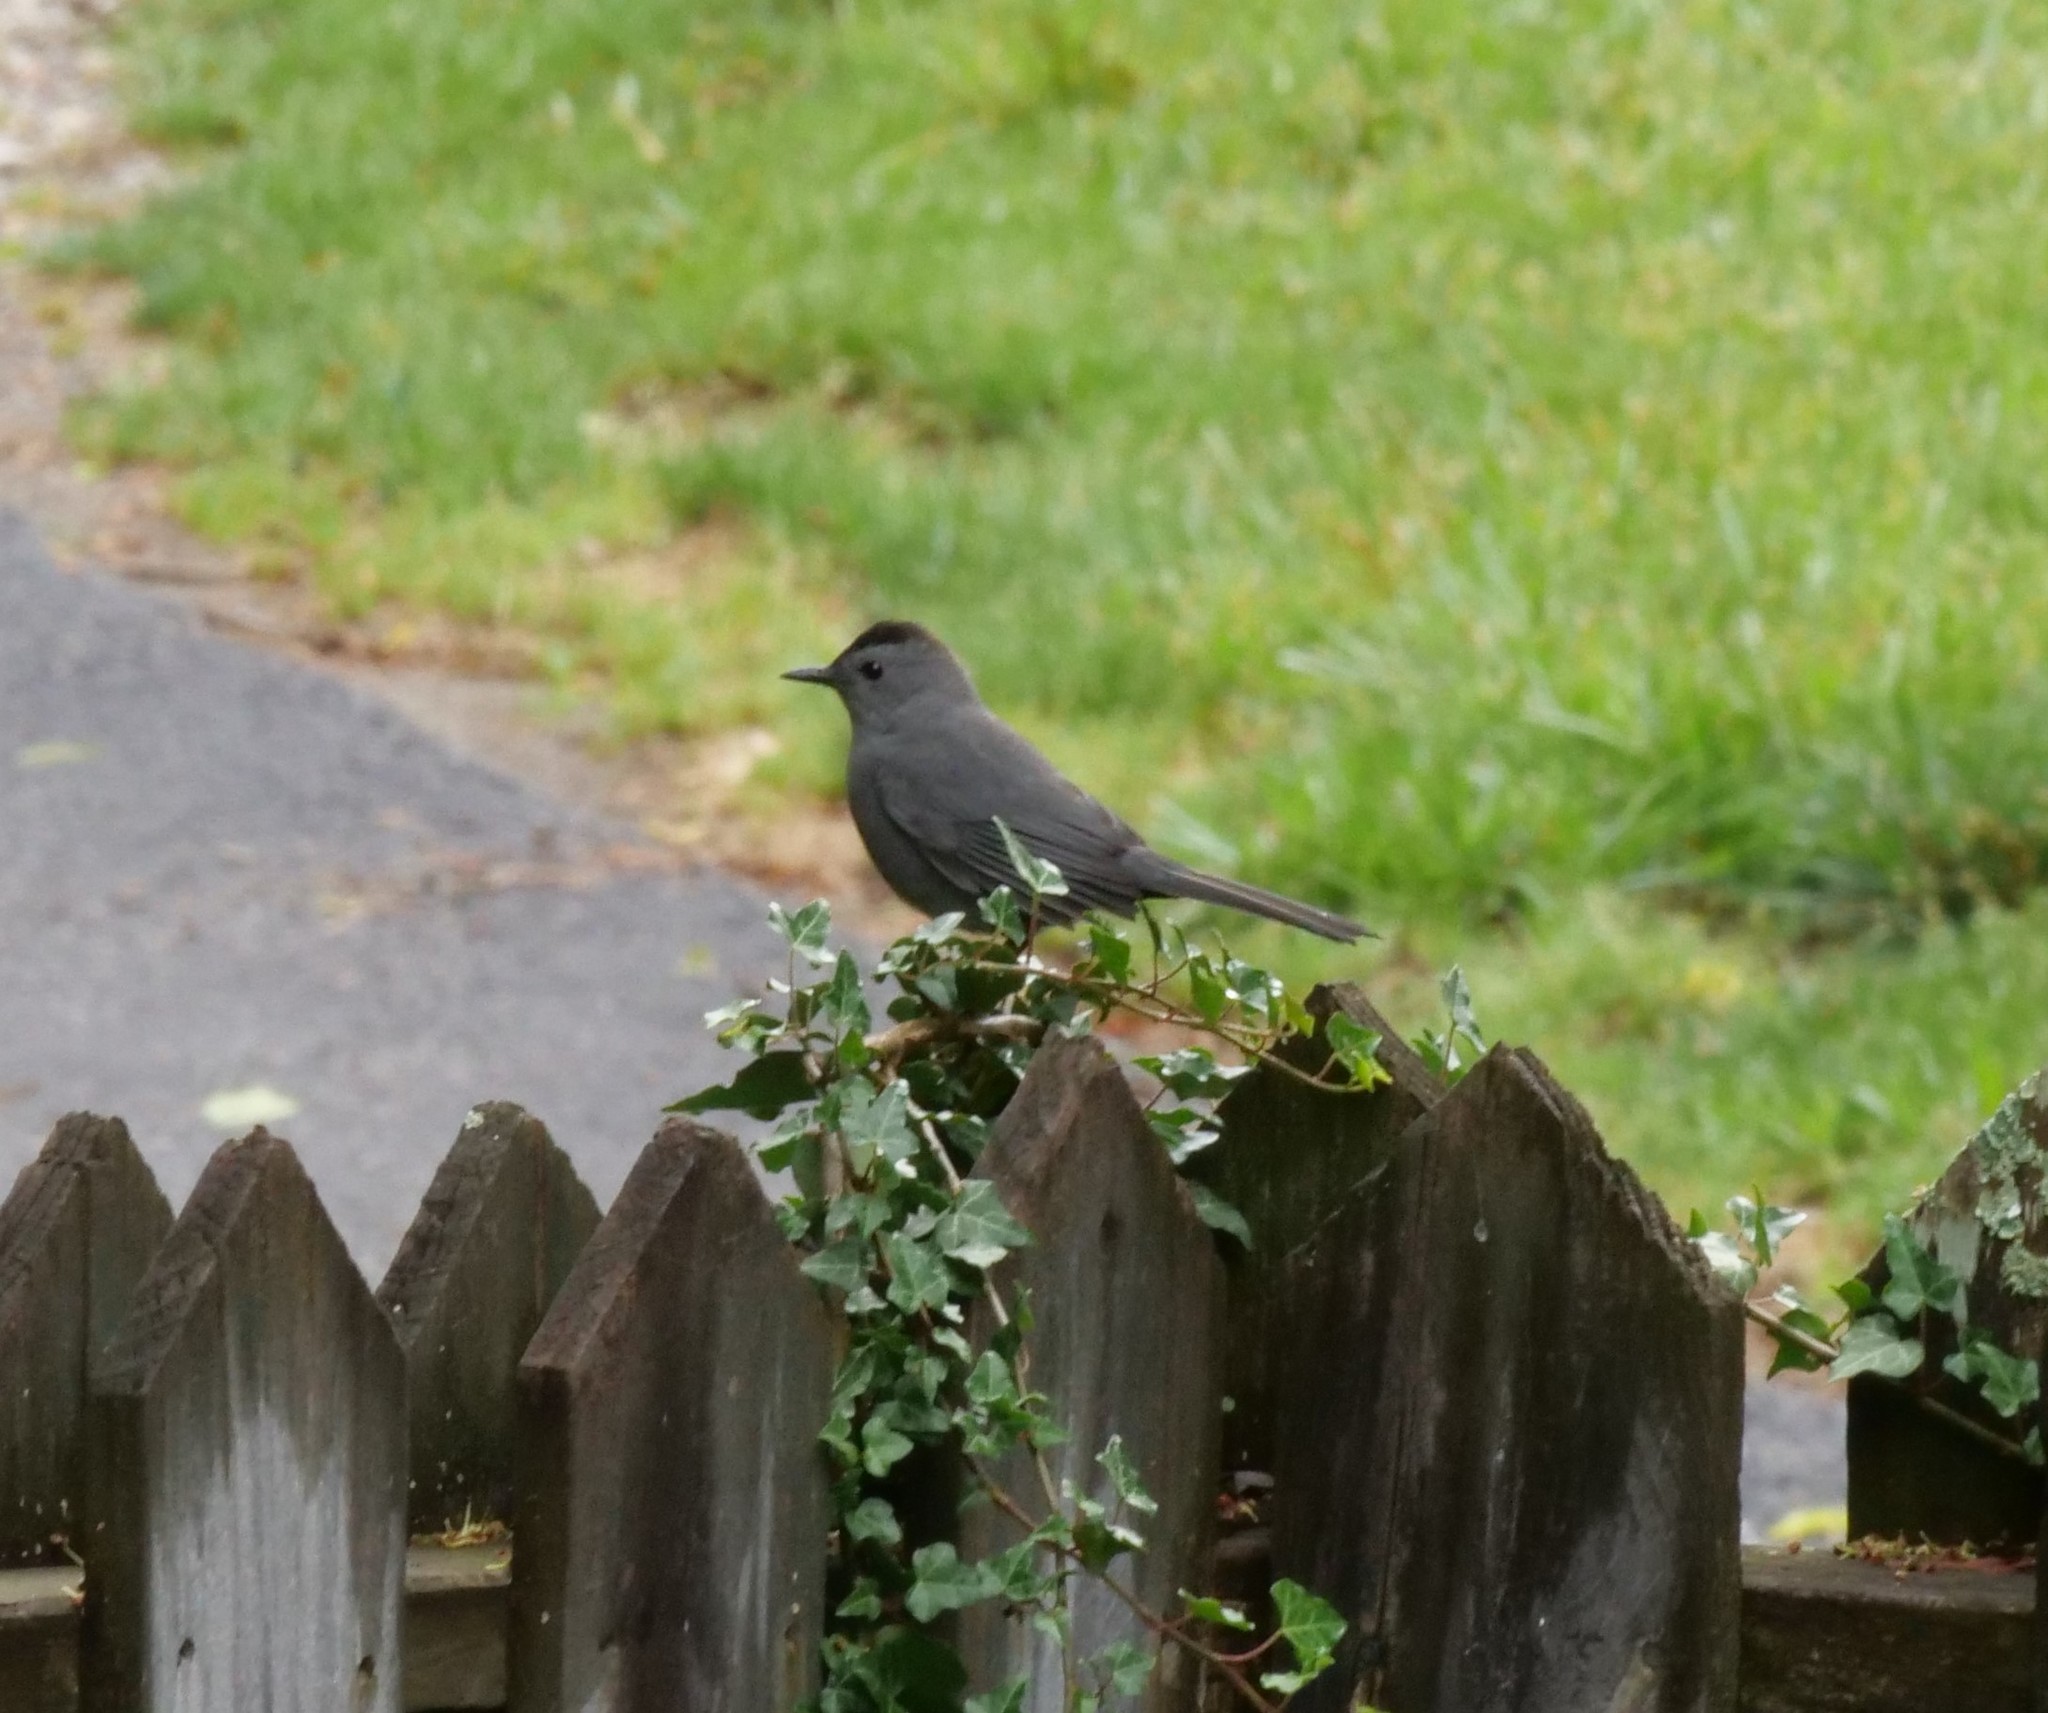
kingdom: Animalia
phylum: Chordata
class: Aves
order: Passeriformes
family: Mimidae
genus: Dumetella
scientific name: Dumetella carolinensis
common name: Gray catbird
